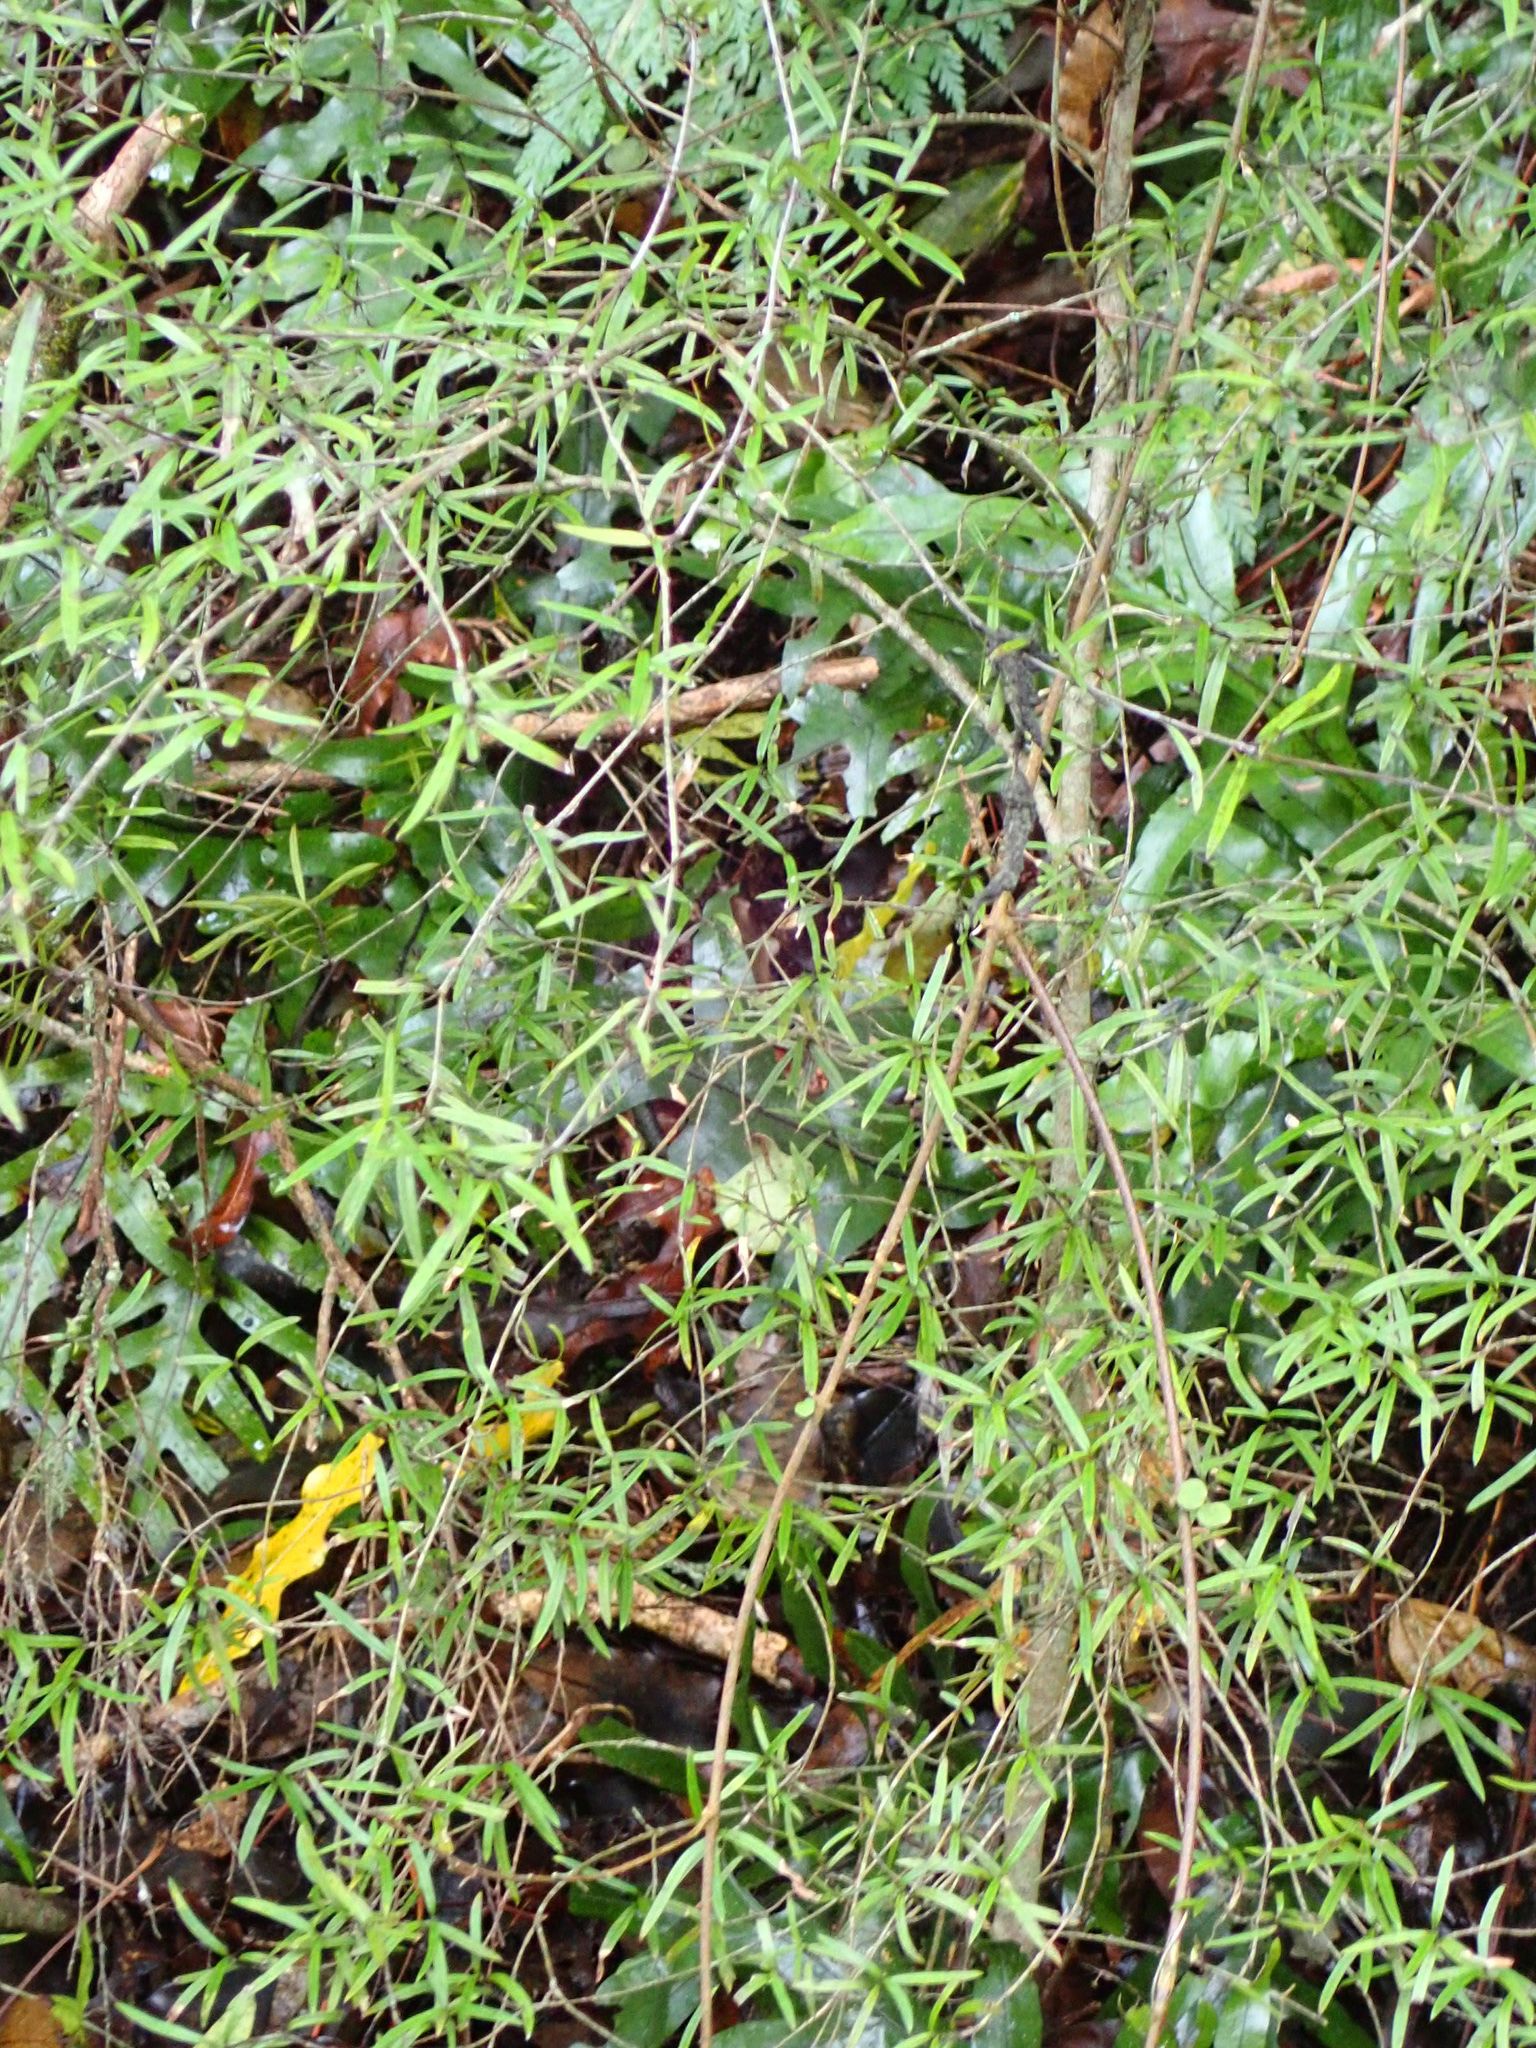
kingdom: Plantae
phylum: Tracheophyta
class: Magnoliopsida
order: Gentianales
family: Rubiaceae
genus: Coprosma
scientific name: Coprosma linariifolia
